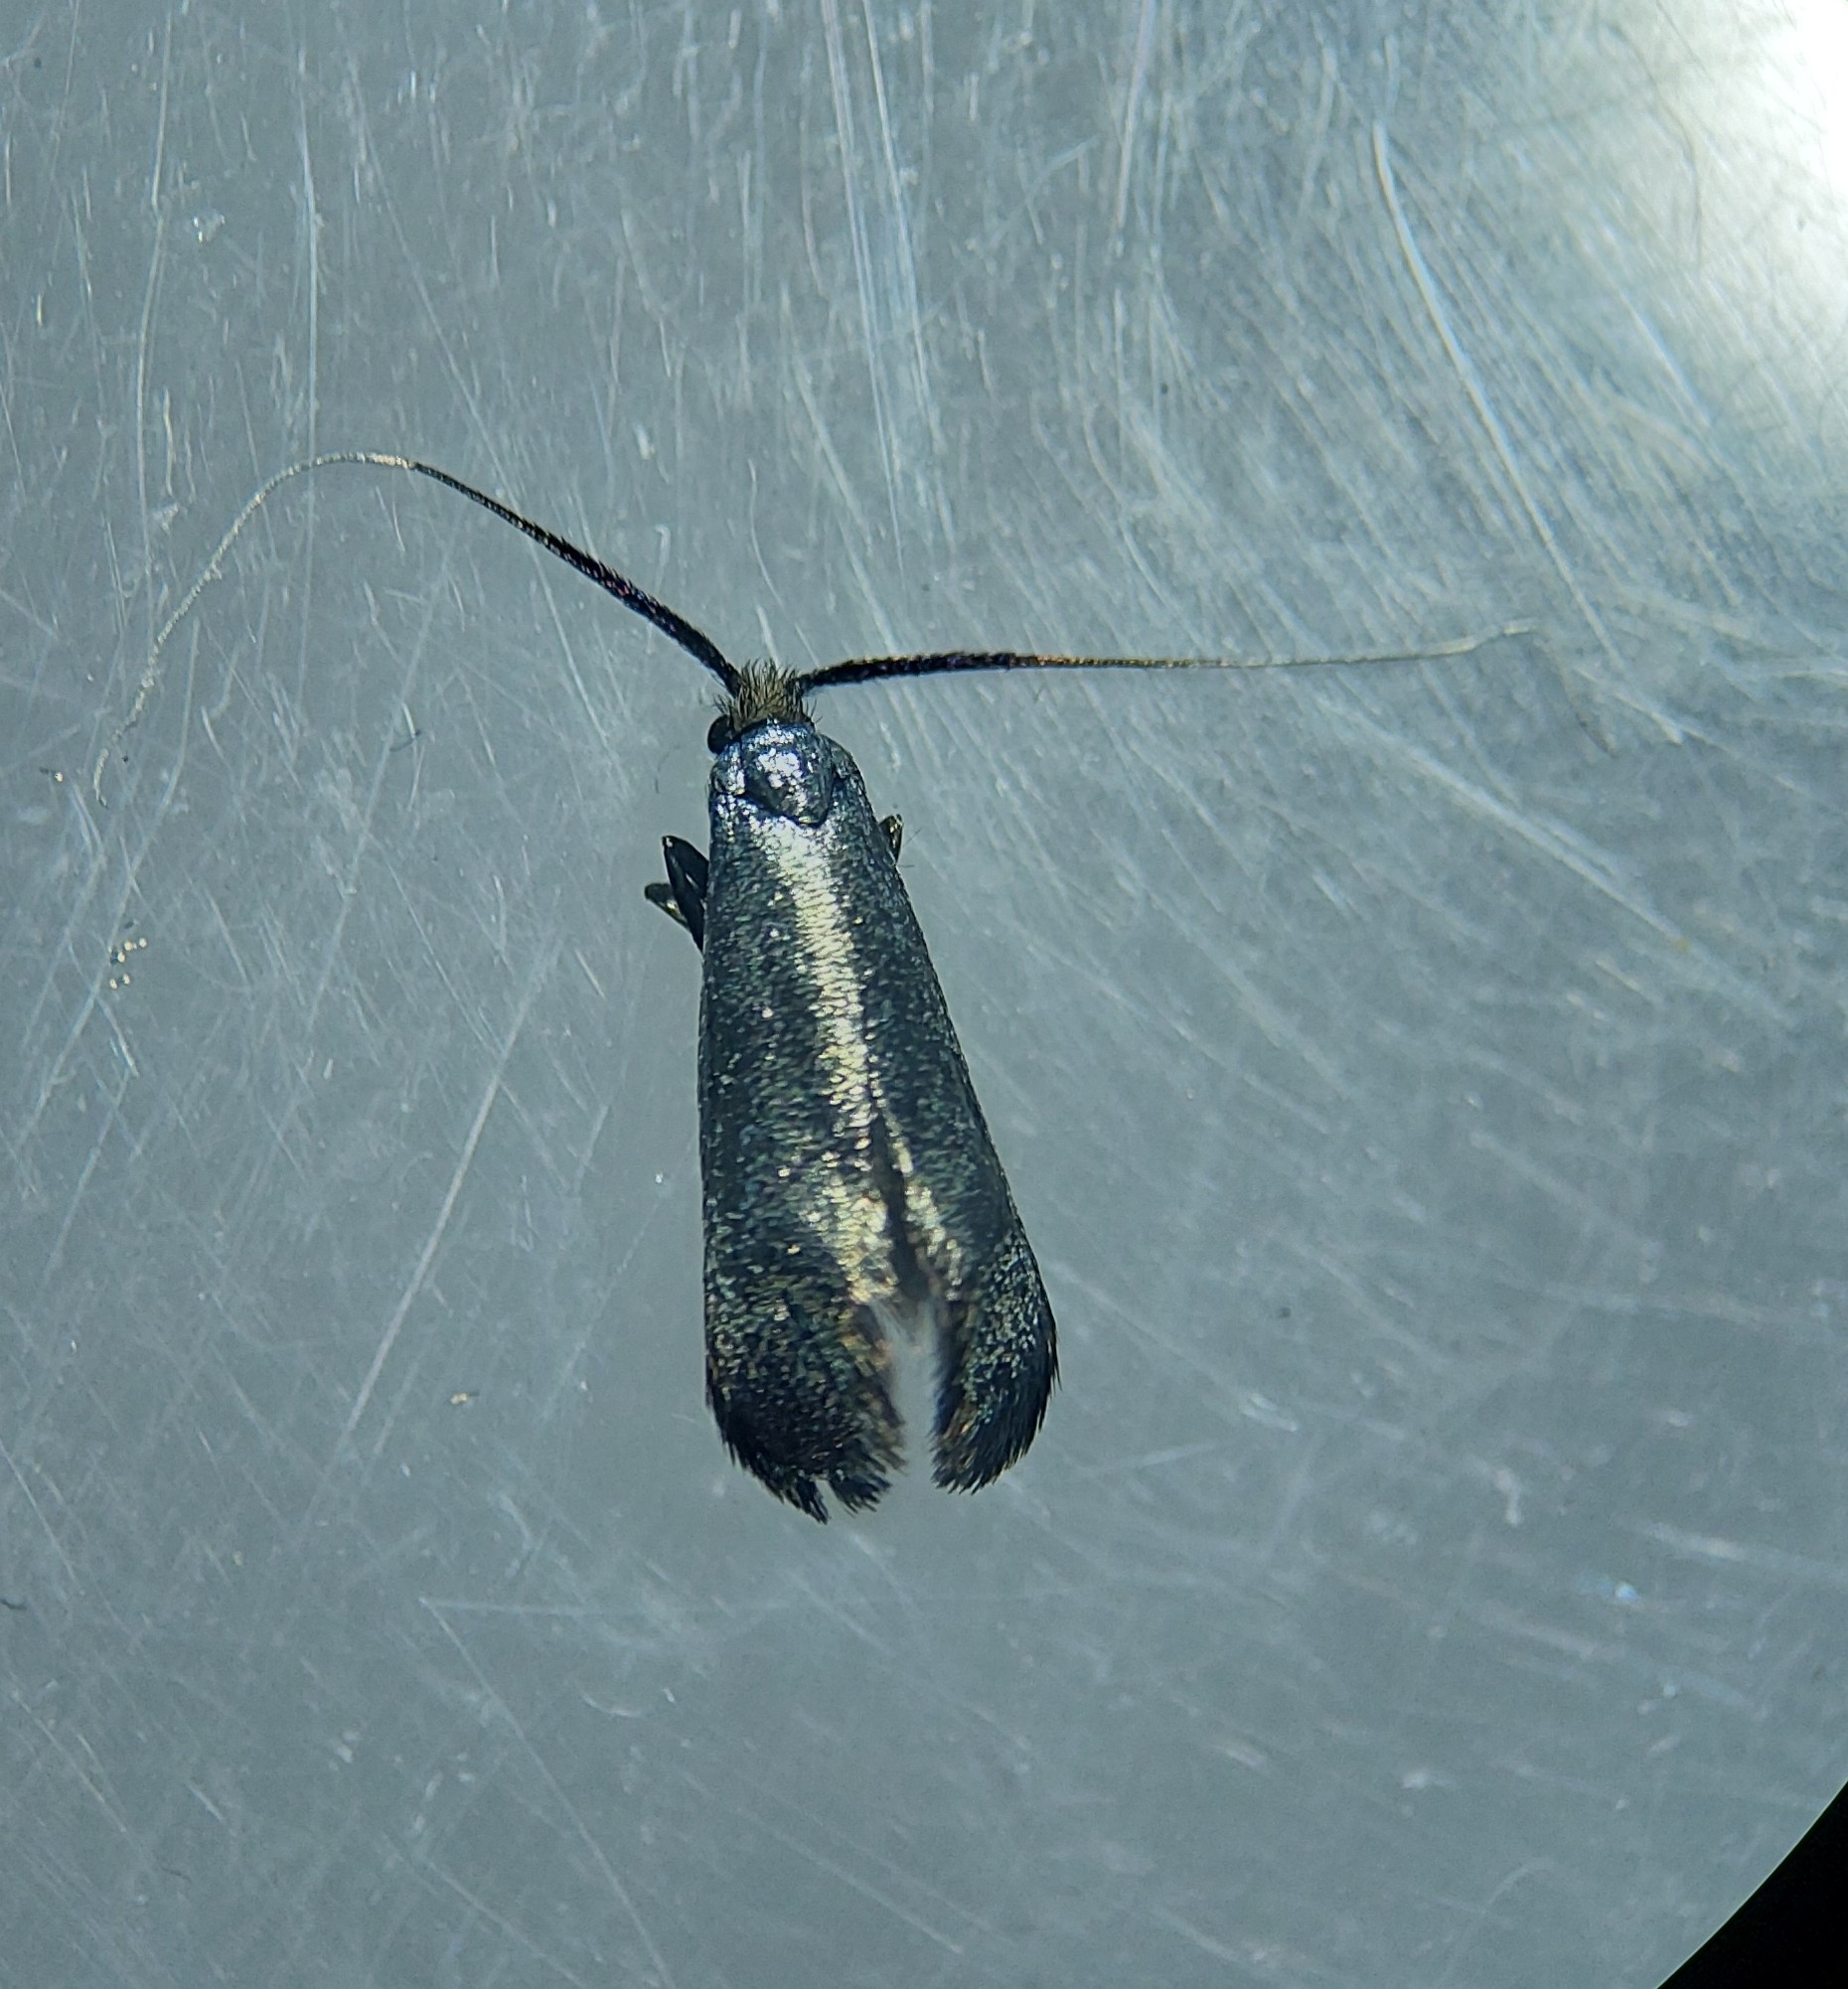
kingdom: Animalia
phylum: Arthropoda
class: Insecta
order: Lepidoptera
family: Adelidae
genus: Adela
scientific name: Adela viridella
